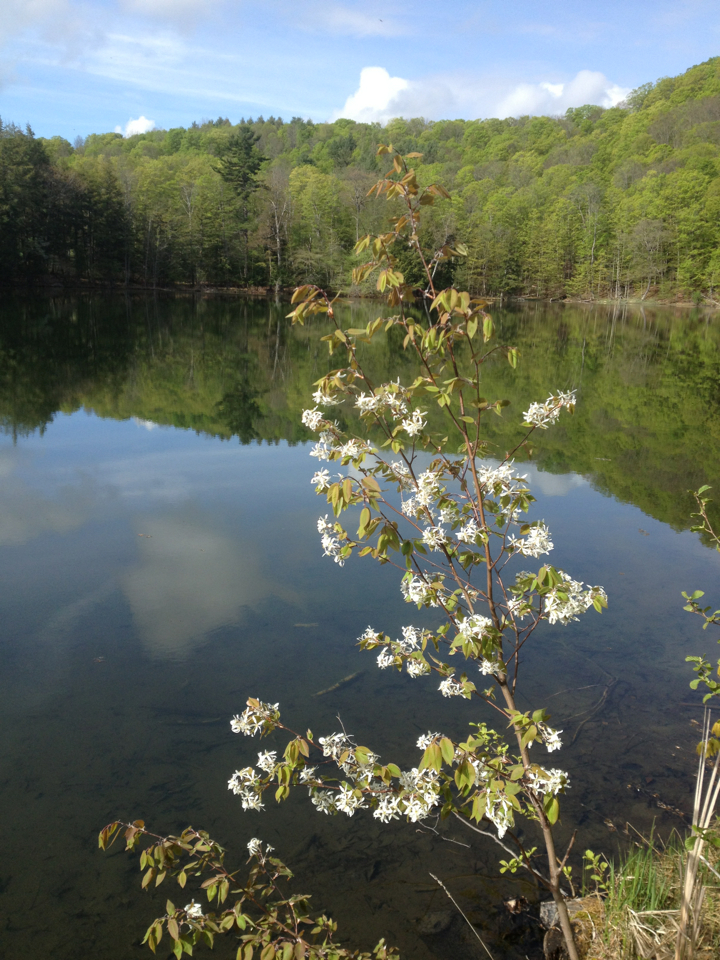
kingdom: Plantae
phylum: Tracheophyta
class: Magnoliopsida
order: Rosales
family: Rosaceae
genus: Amelanchier
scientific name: Amelanchier laevis
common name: Allegheny serviceberry
